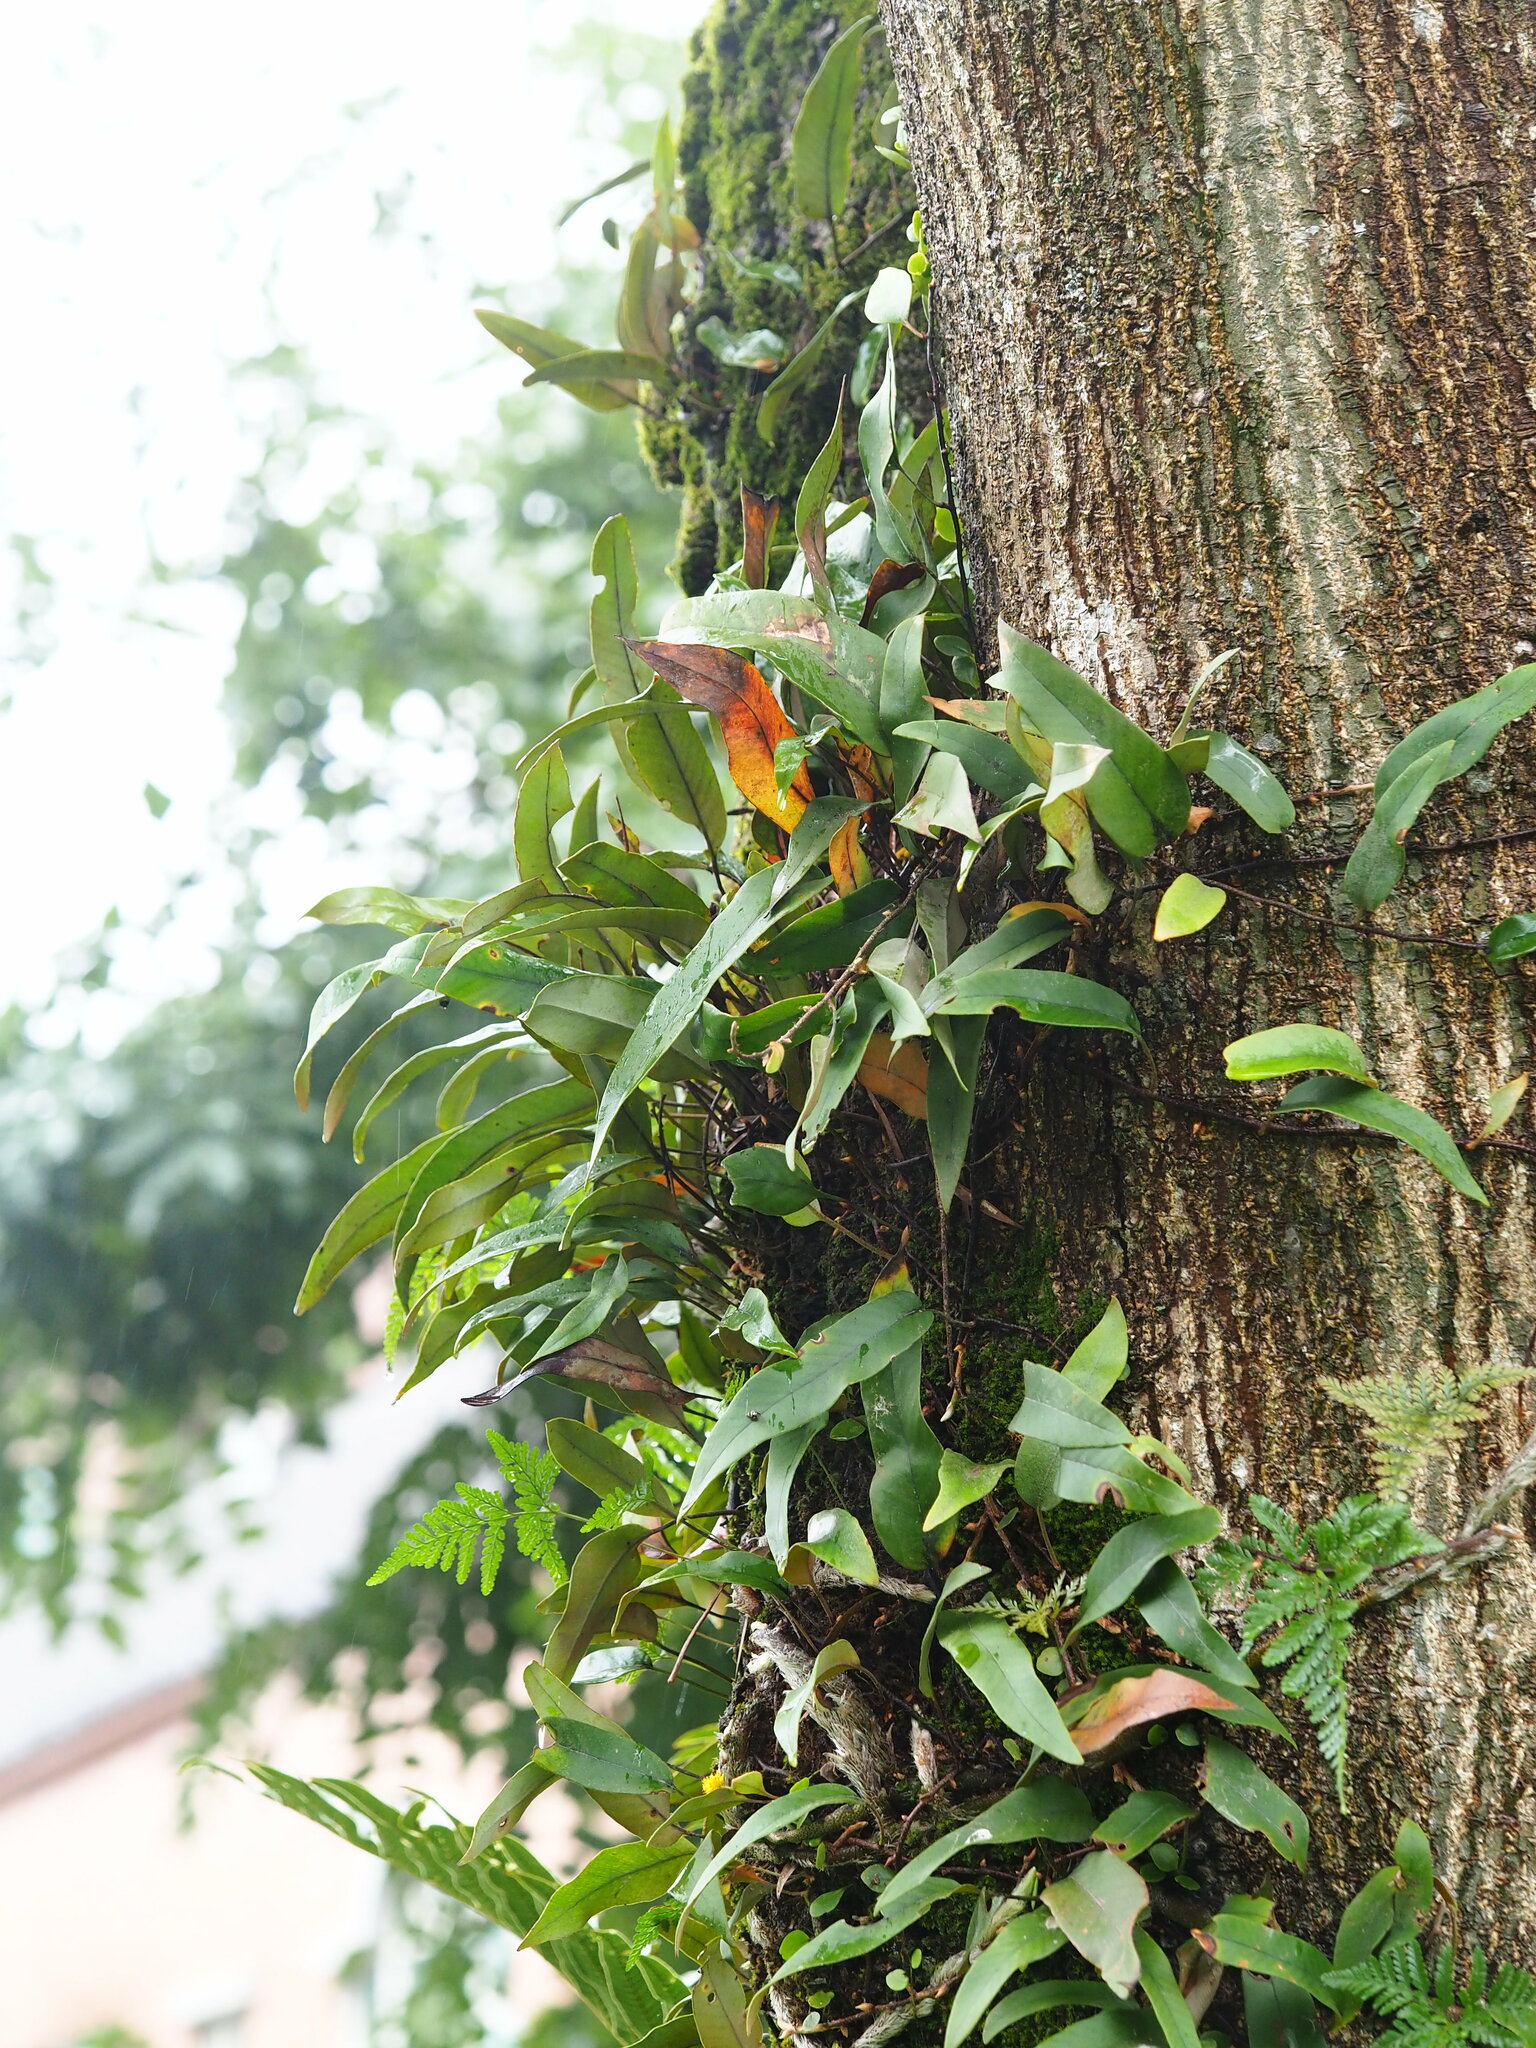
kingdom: Plantae
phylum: Tracheophyta
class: Polypodiopsida
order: Polypodiales
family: Polypodiaceae
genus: Pyrrosia
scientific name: Pyrrosia lingua
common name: Felt fern
